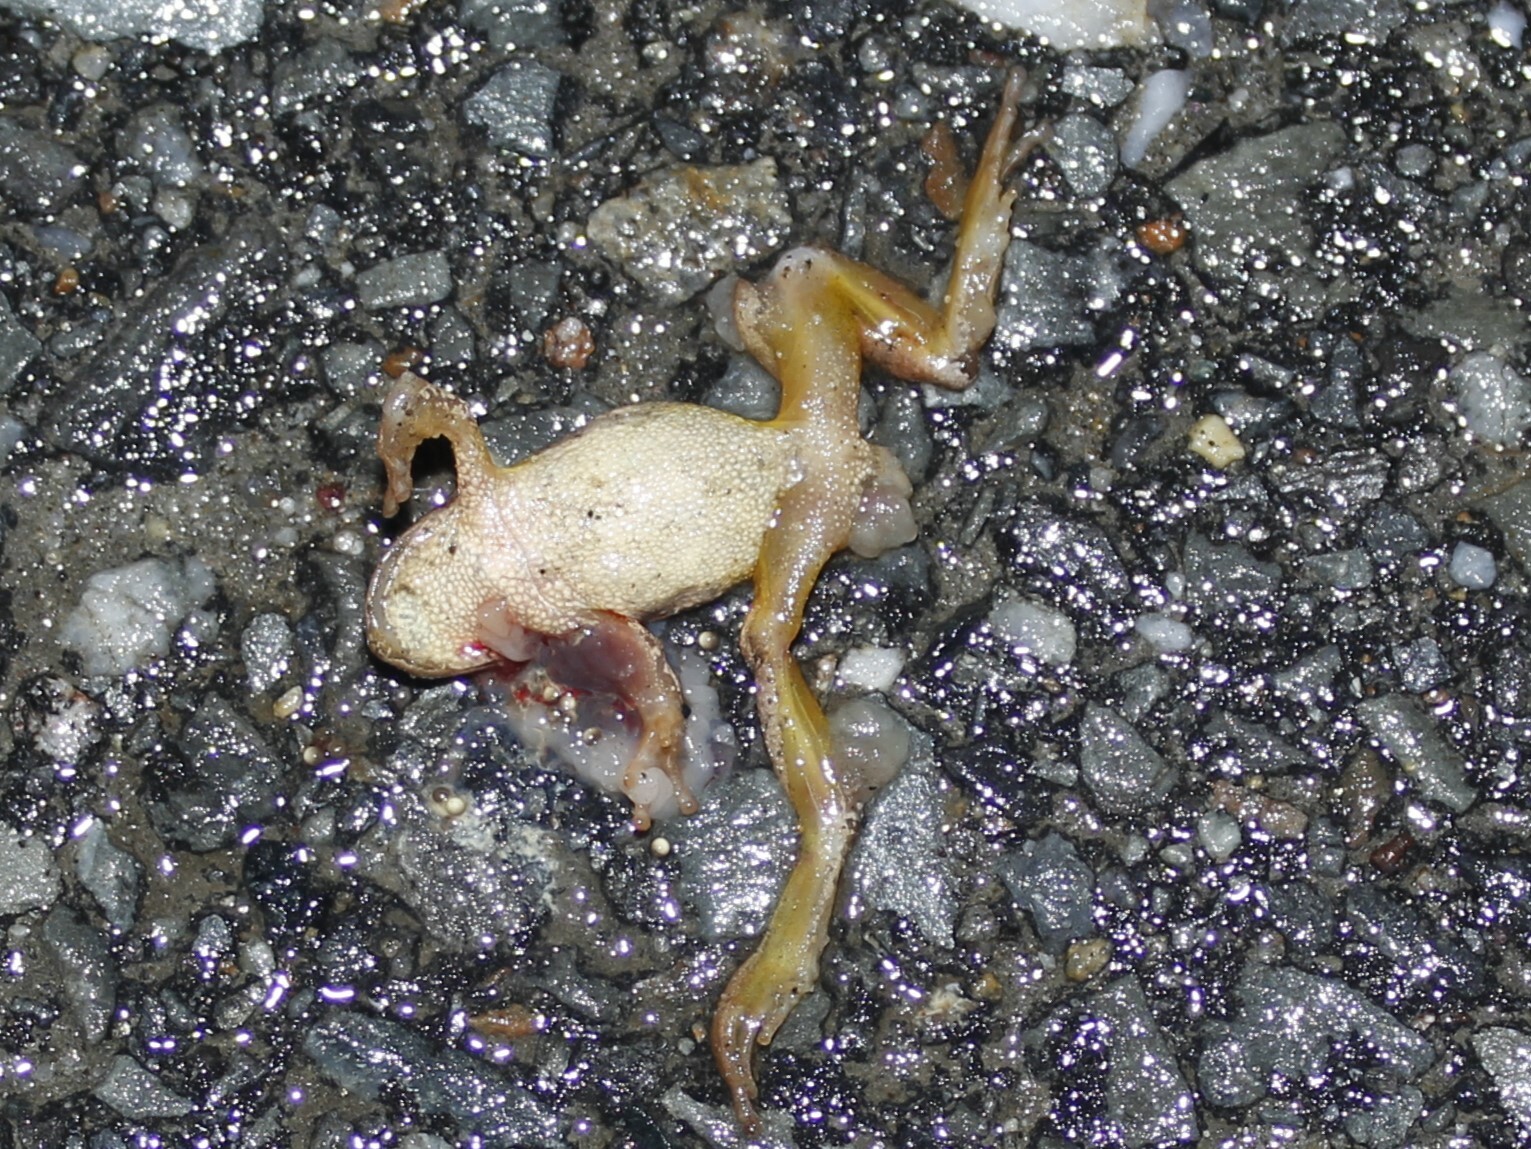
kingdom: Animalia
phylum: Chordata
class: Amphibia
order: Anura
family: Hylidae
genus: Pseudacris
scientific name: Pseudacris crucifer
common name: Spring peeper
